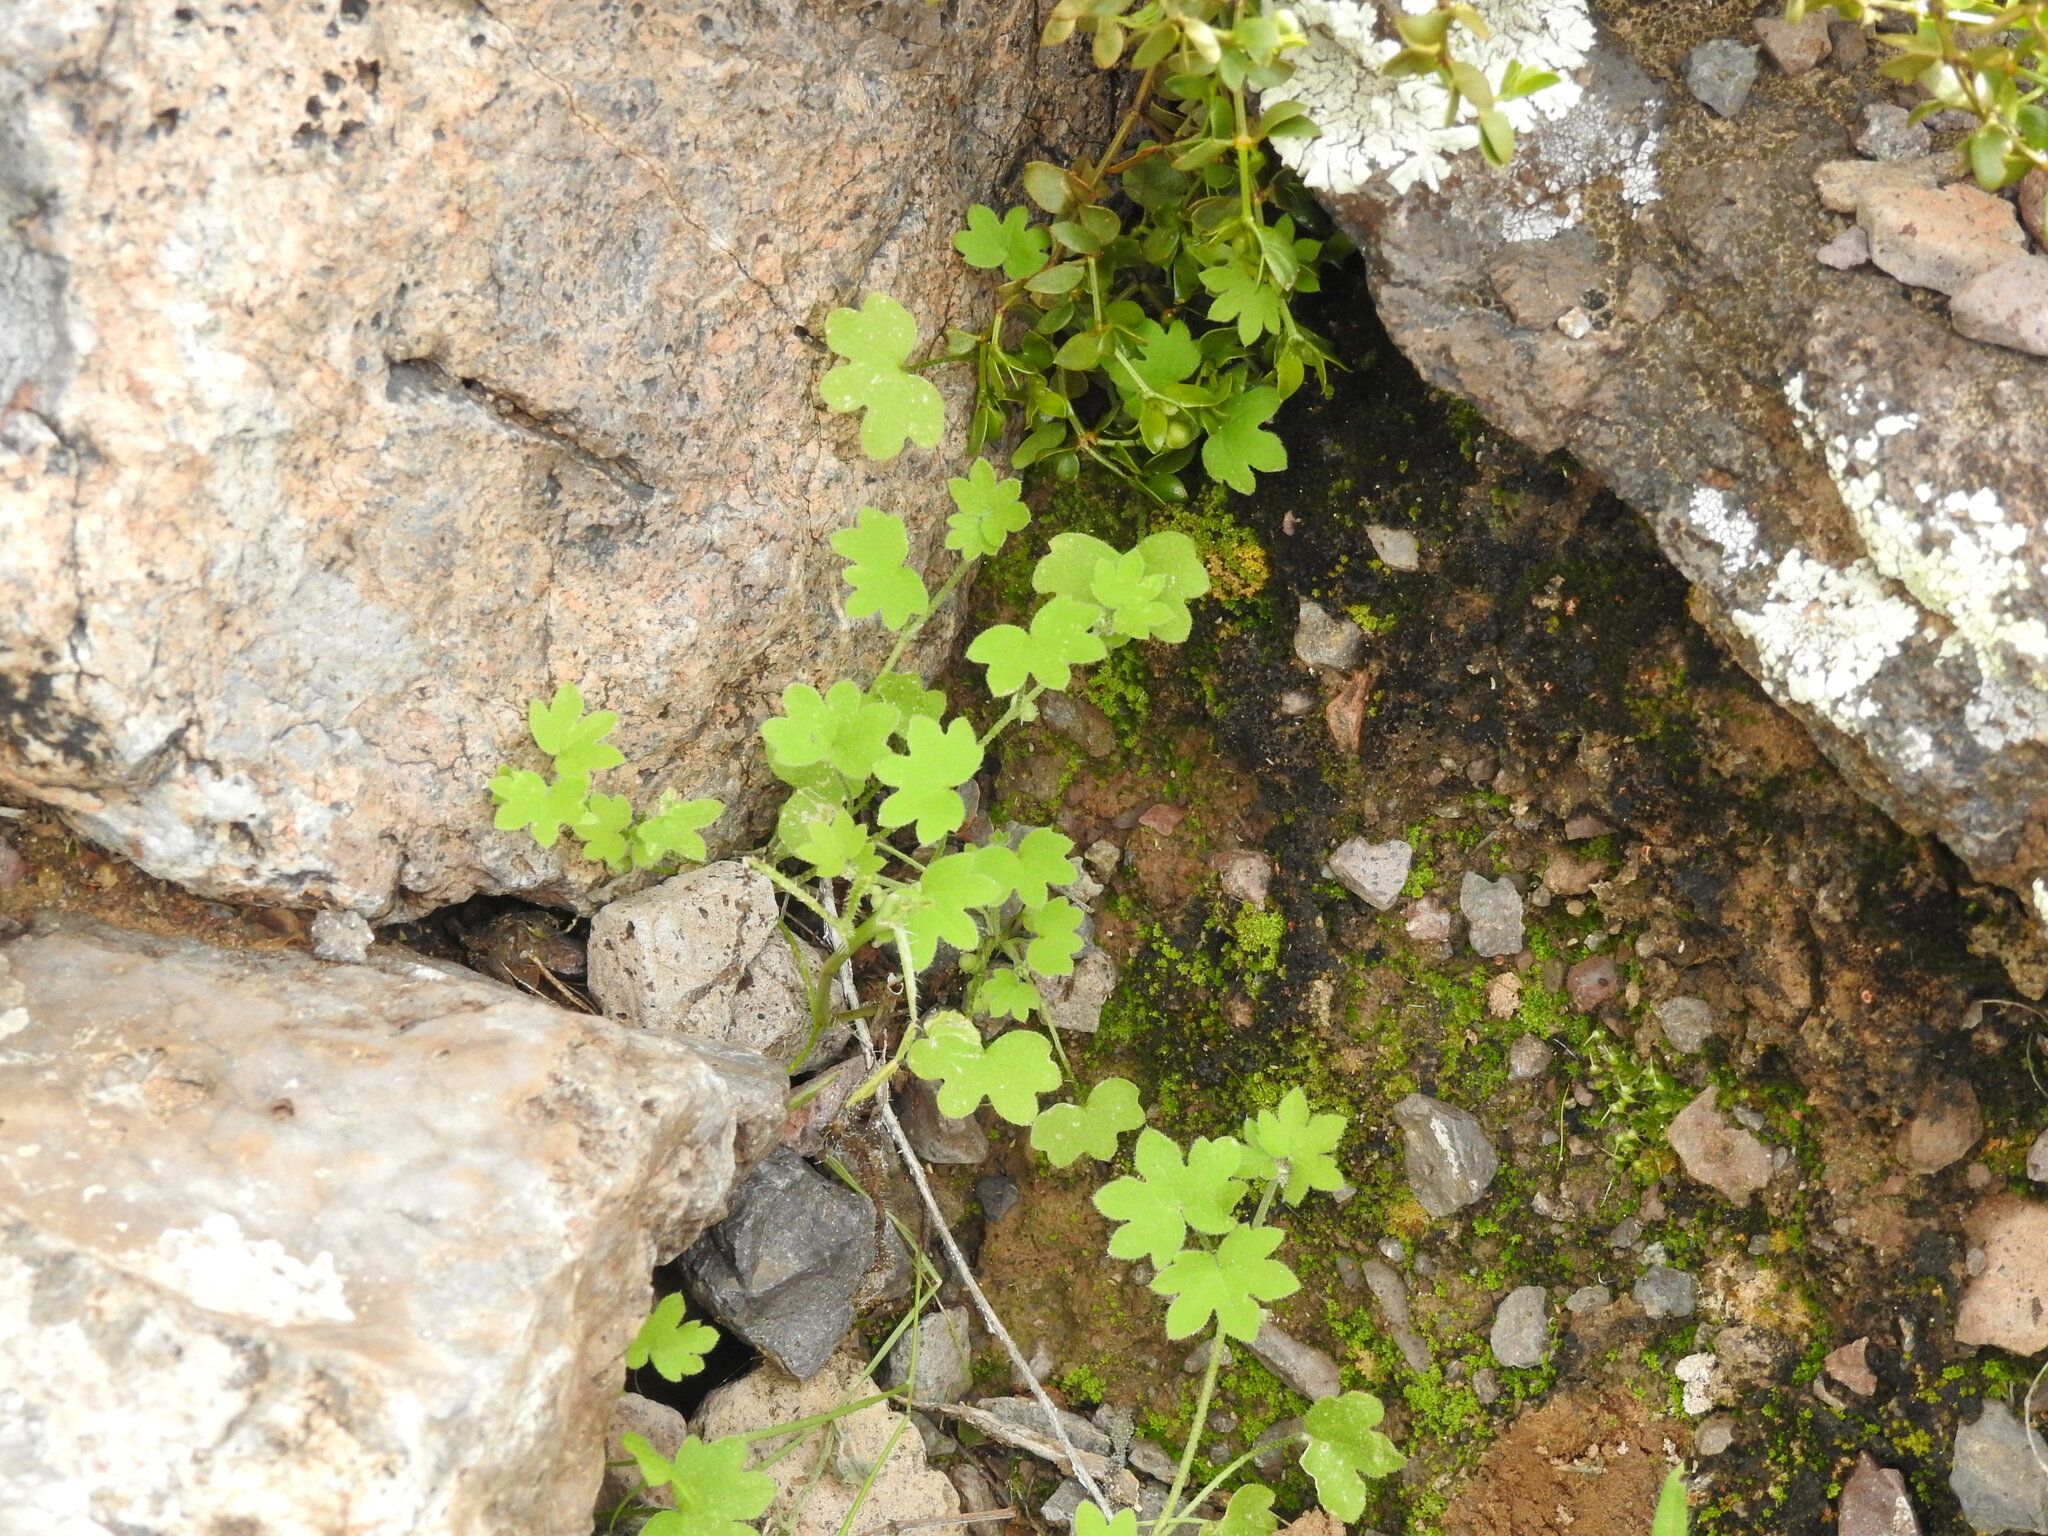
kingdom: Plantae
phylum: Tracheophyta
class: Magnoliopsida
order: Apiales
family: Apiaceae
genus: Bowlesia
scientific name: Bowlesia incana
